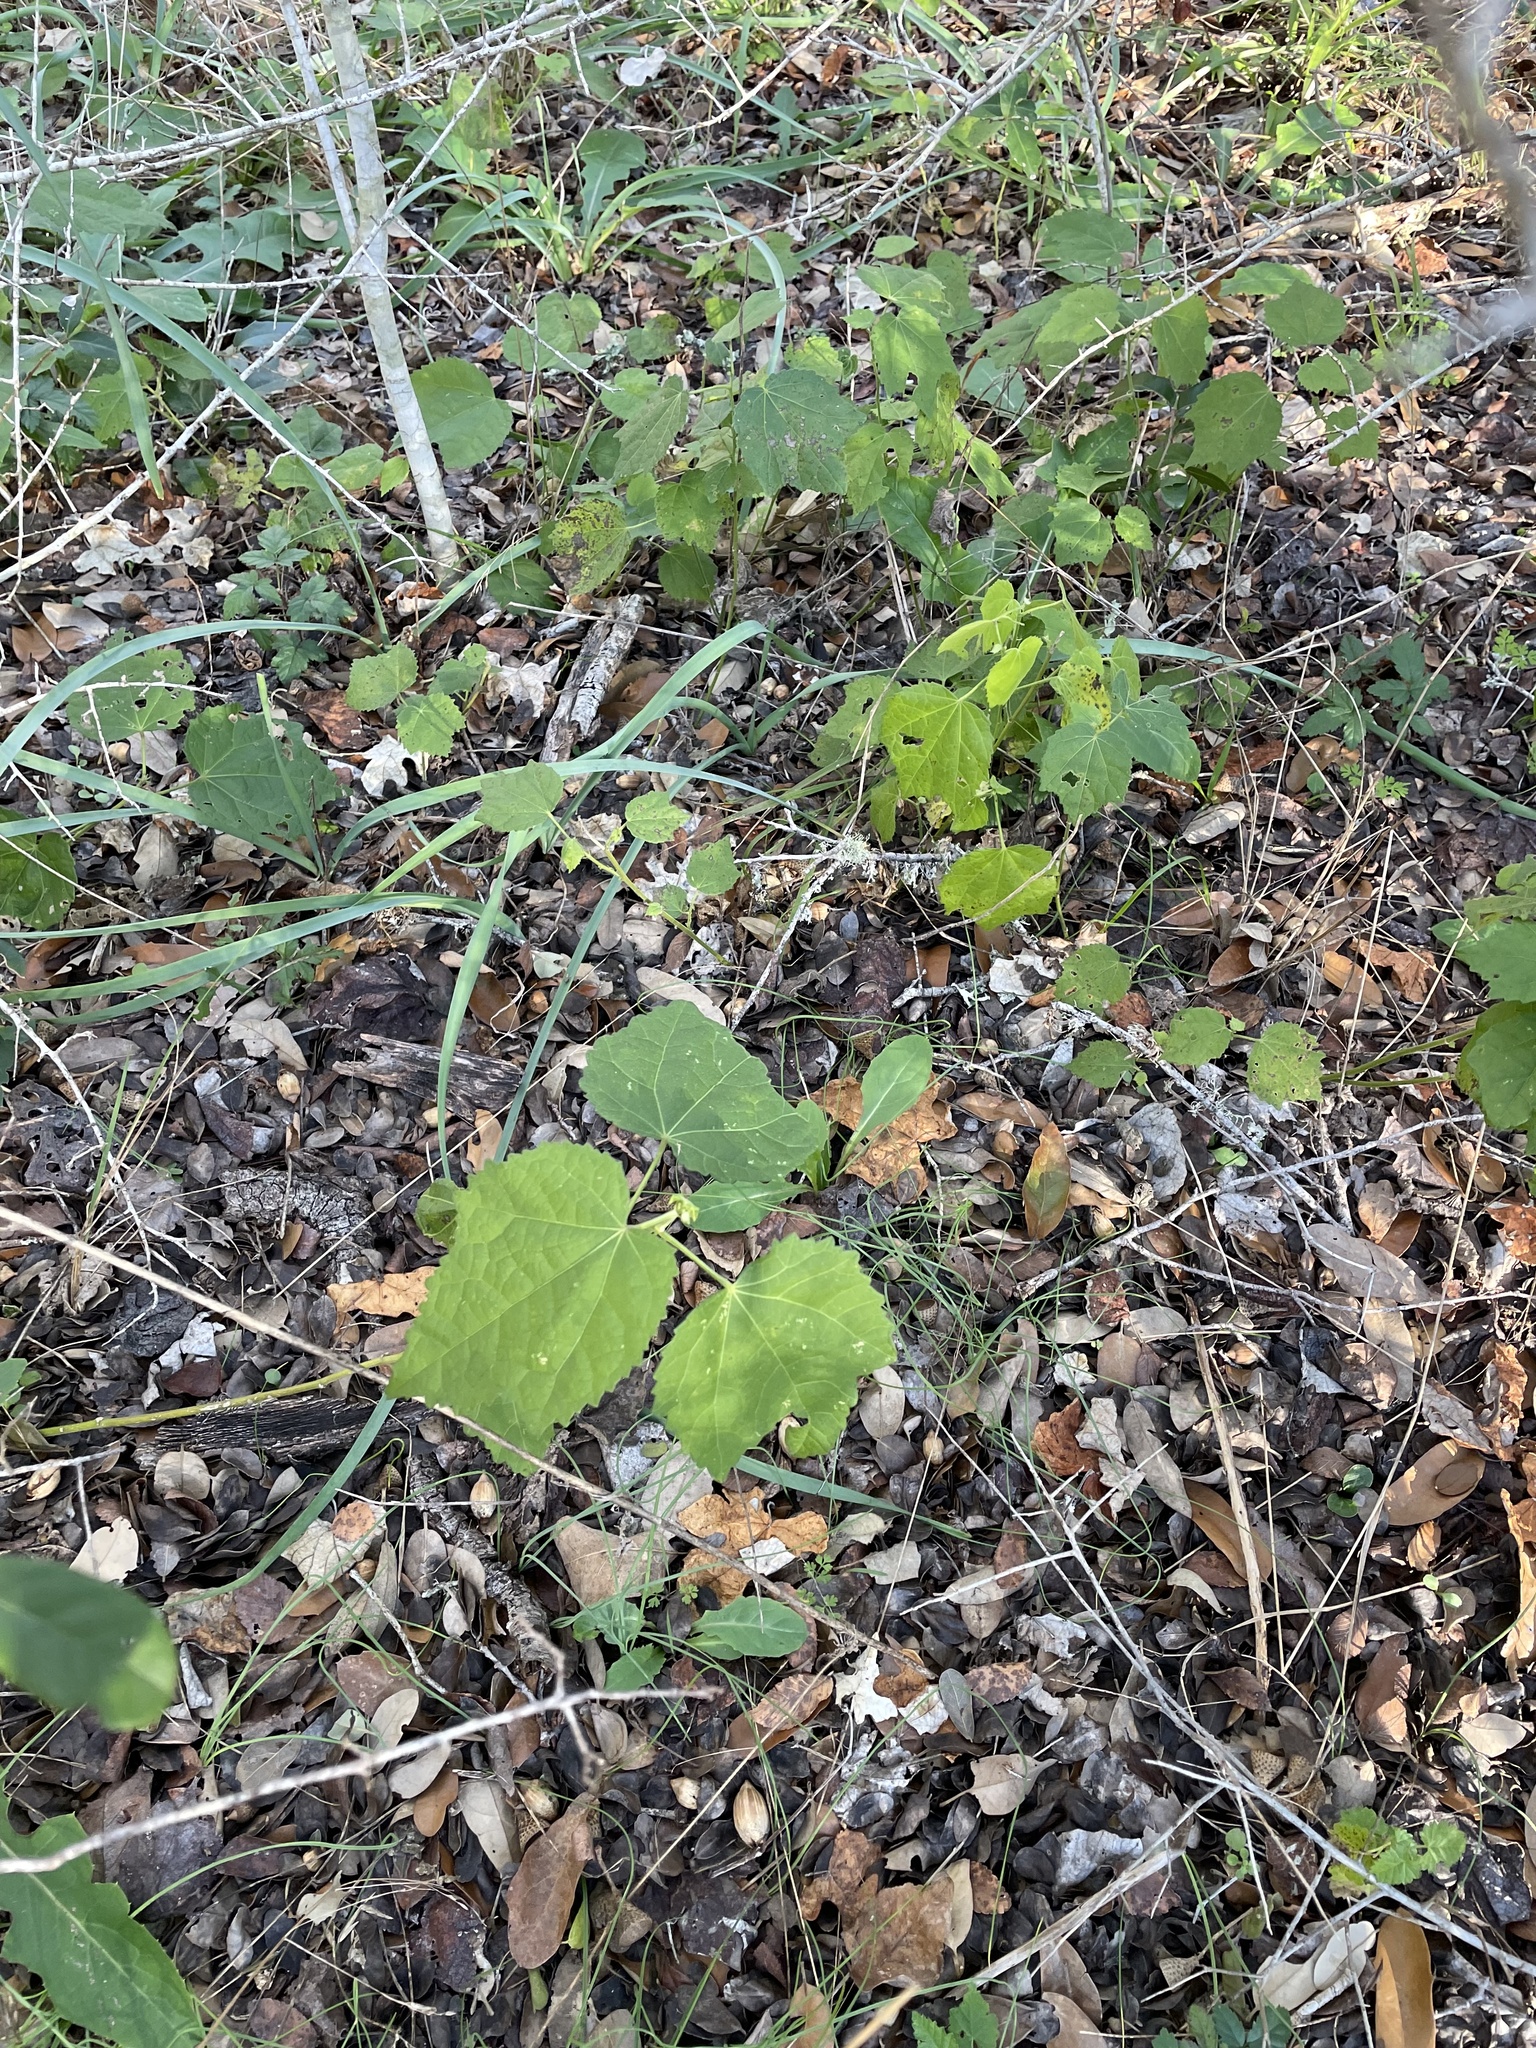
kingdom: Plantae
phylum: Tracheophyta
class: Magnoliopsida
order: Malvales
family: Malvaceae
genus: Malvaviscus
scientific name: Malvaviscus arboreus
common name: Wax mallow
